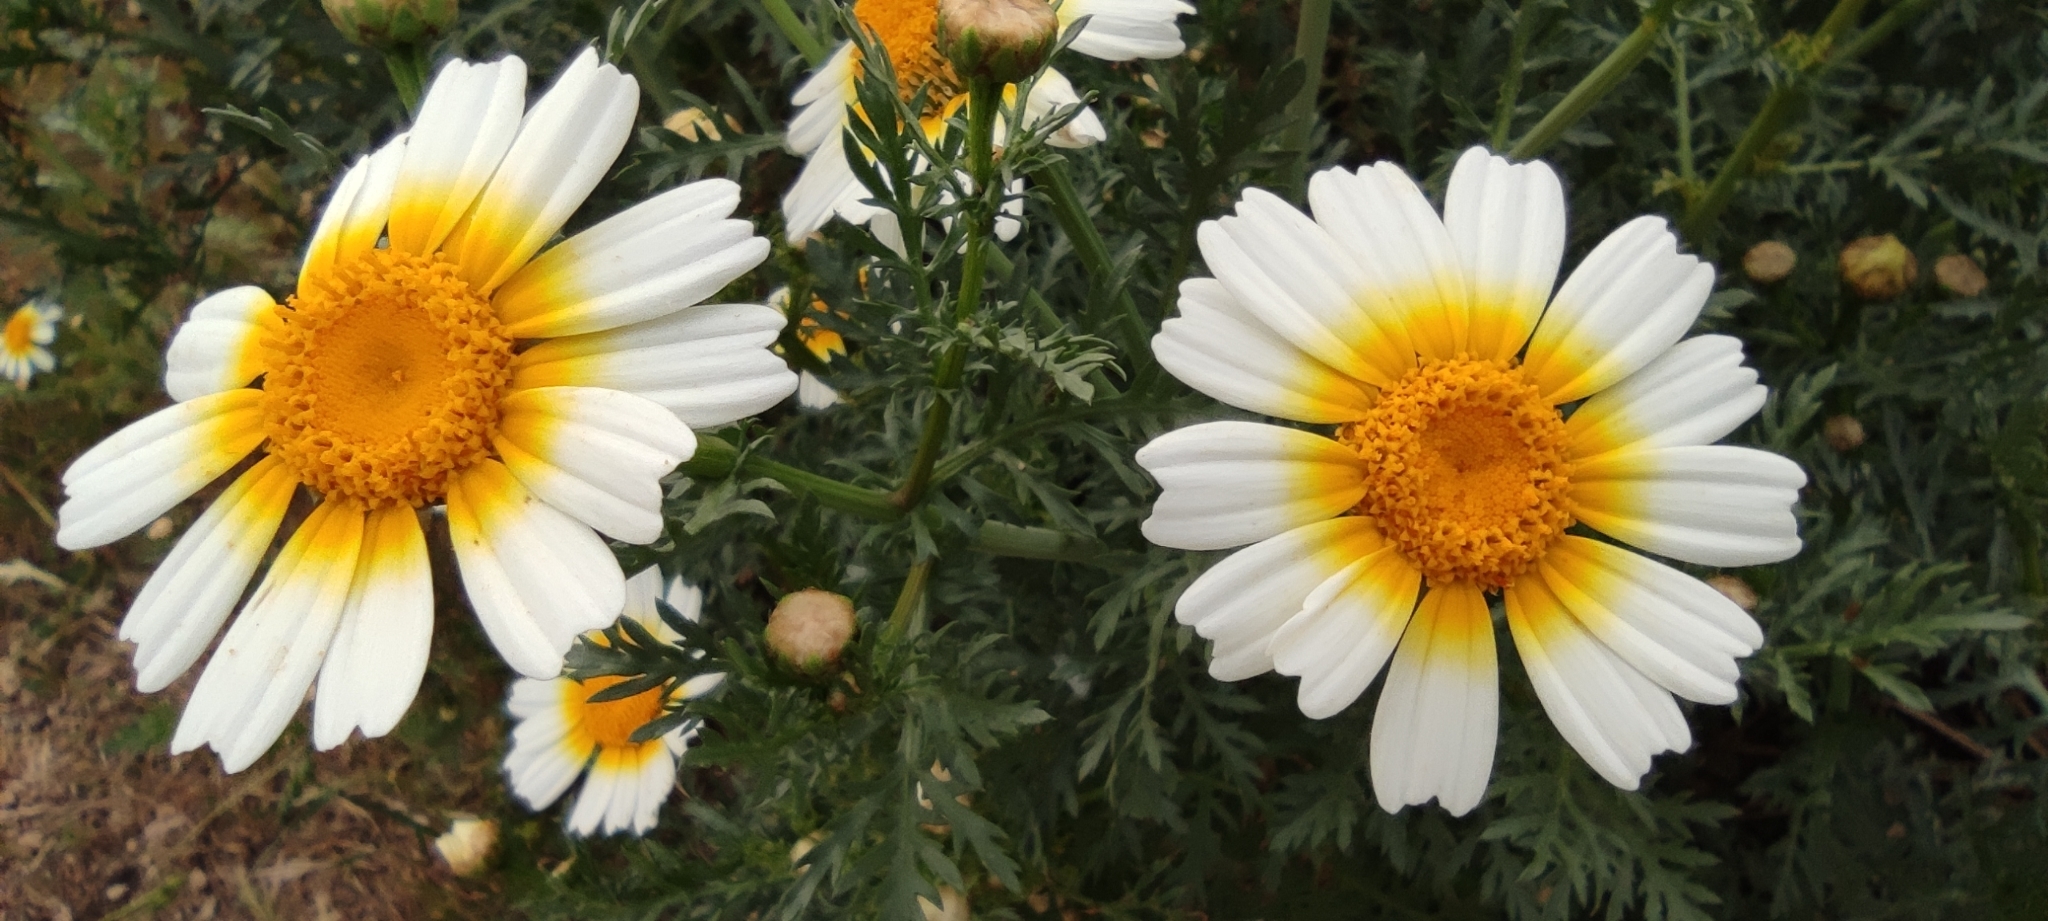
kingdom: Plantae
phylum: Tracheophyta
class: Magnoliopsida
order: Asterales
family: Asteraceae
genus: Glebionis
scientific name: Glebionis coronaria
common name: Crowndaisy
